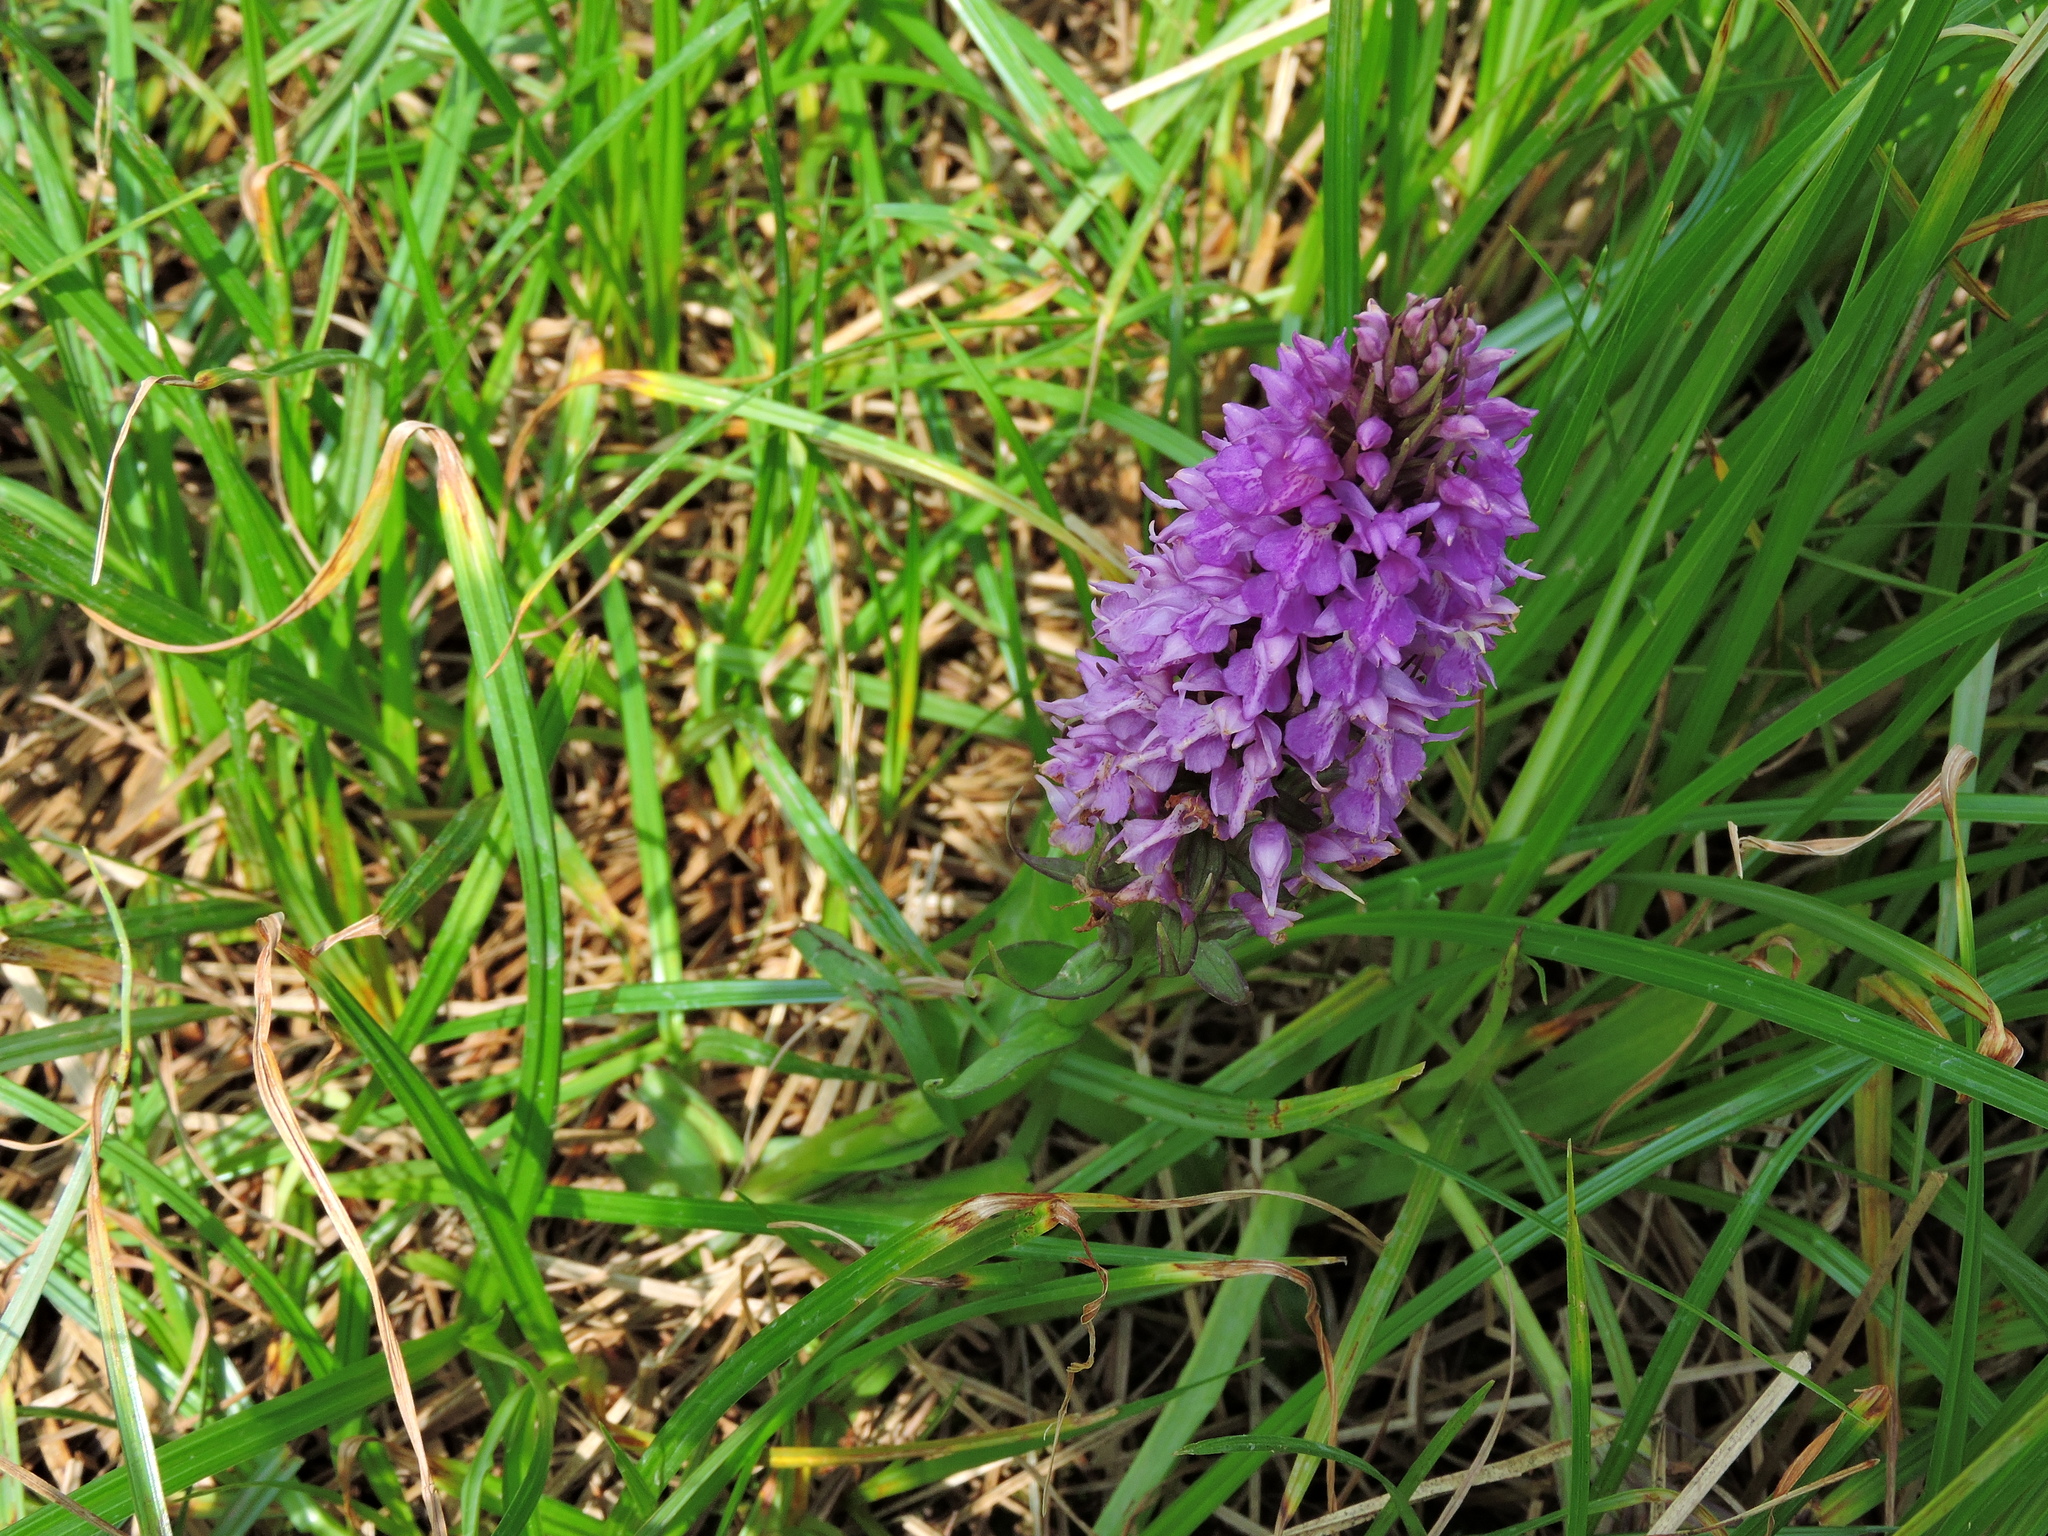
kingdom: Plantae
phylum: Tracheophyta
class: Liliopsida
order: Asparagales
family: Orchidaceae
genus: Dactylorhiza
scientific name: Dactylorhiza majalis
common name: Marsh orchid
